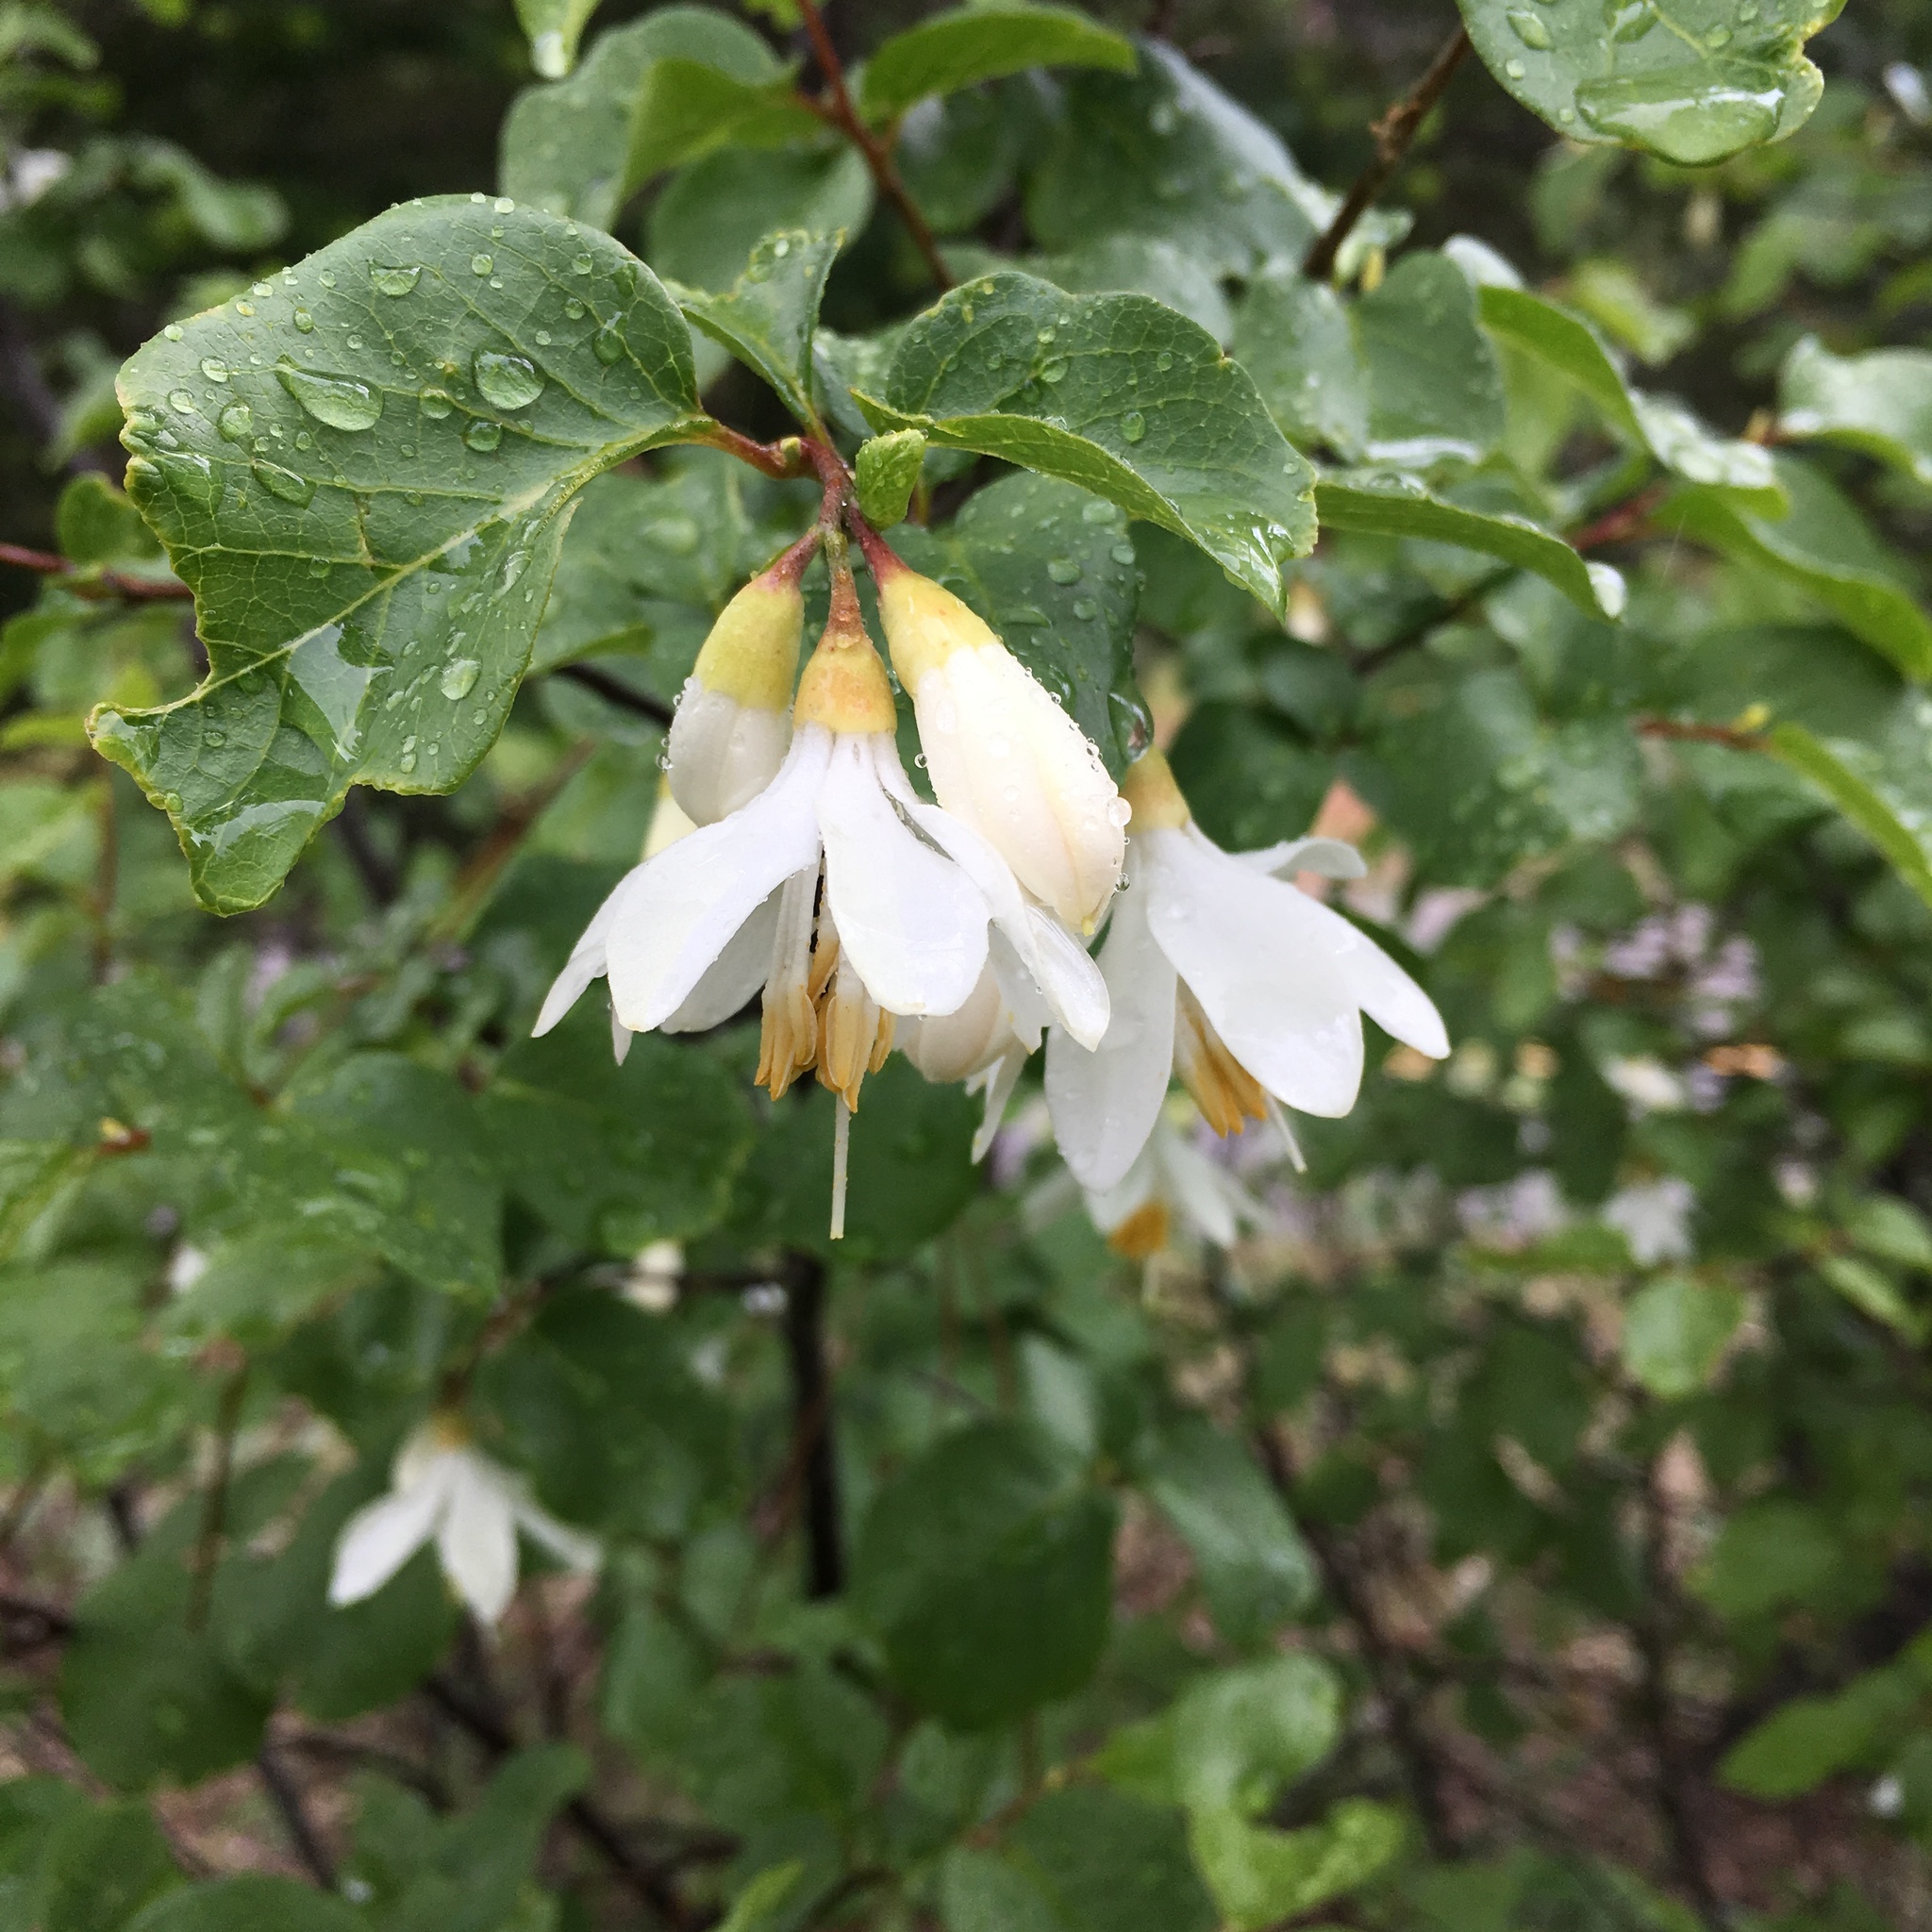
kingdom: Plantae
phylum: Tracheophyta
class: Magnoliopsida
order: Ericales
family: Styracaceae
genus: Styrax
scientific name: Styrax redivivus
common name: California styrax
